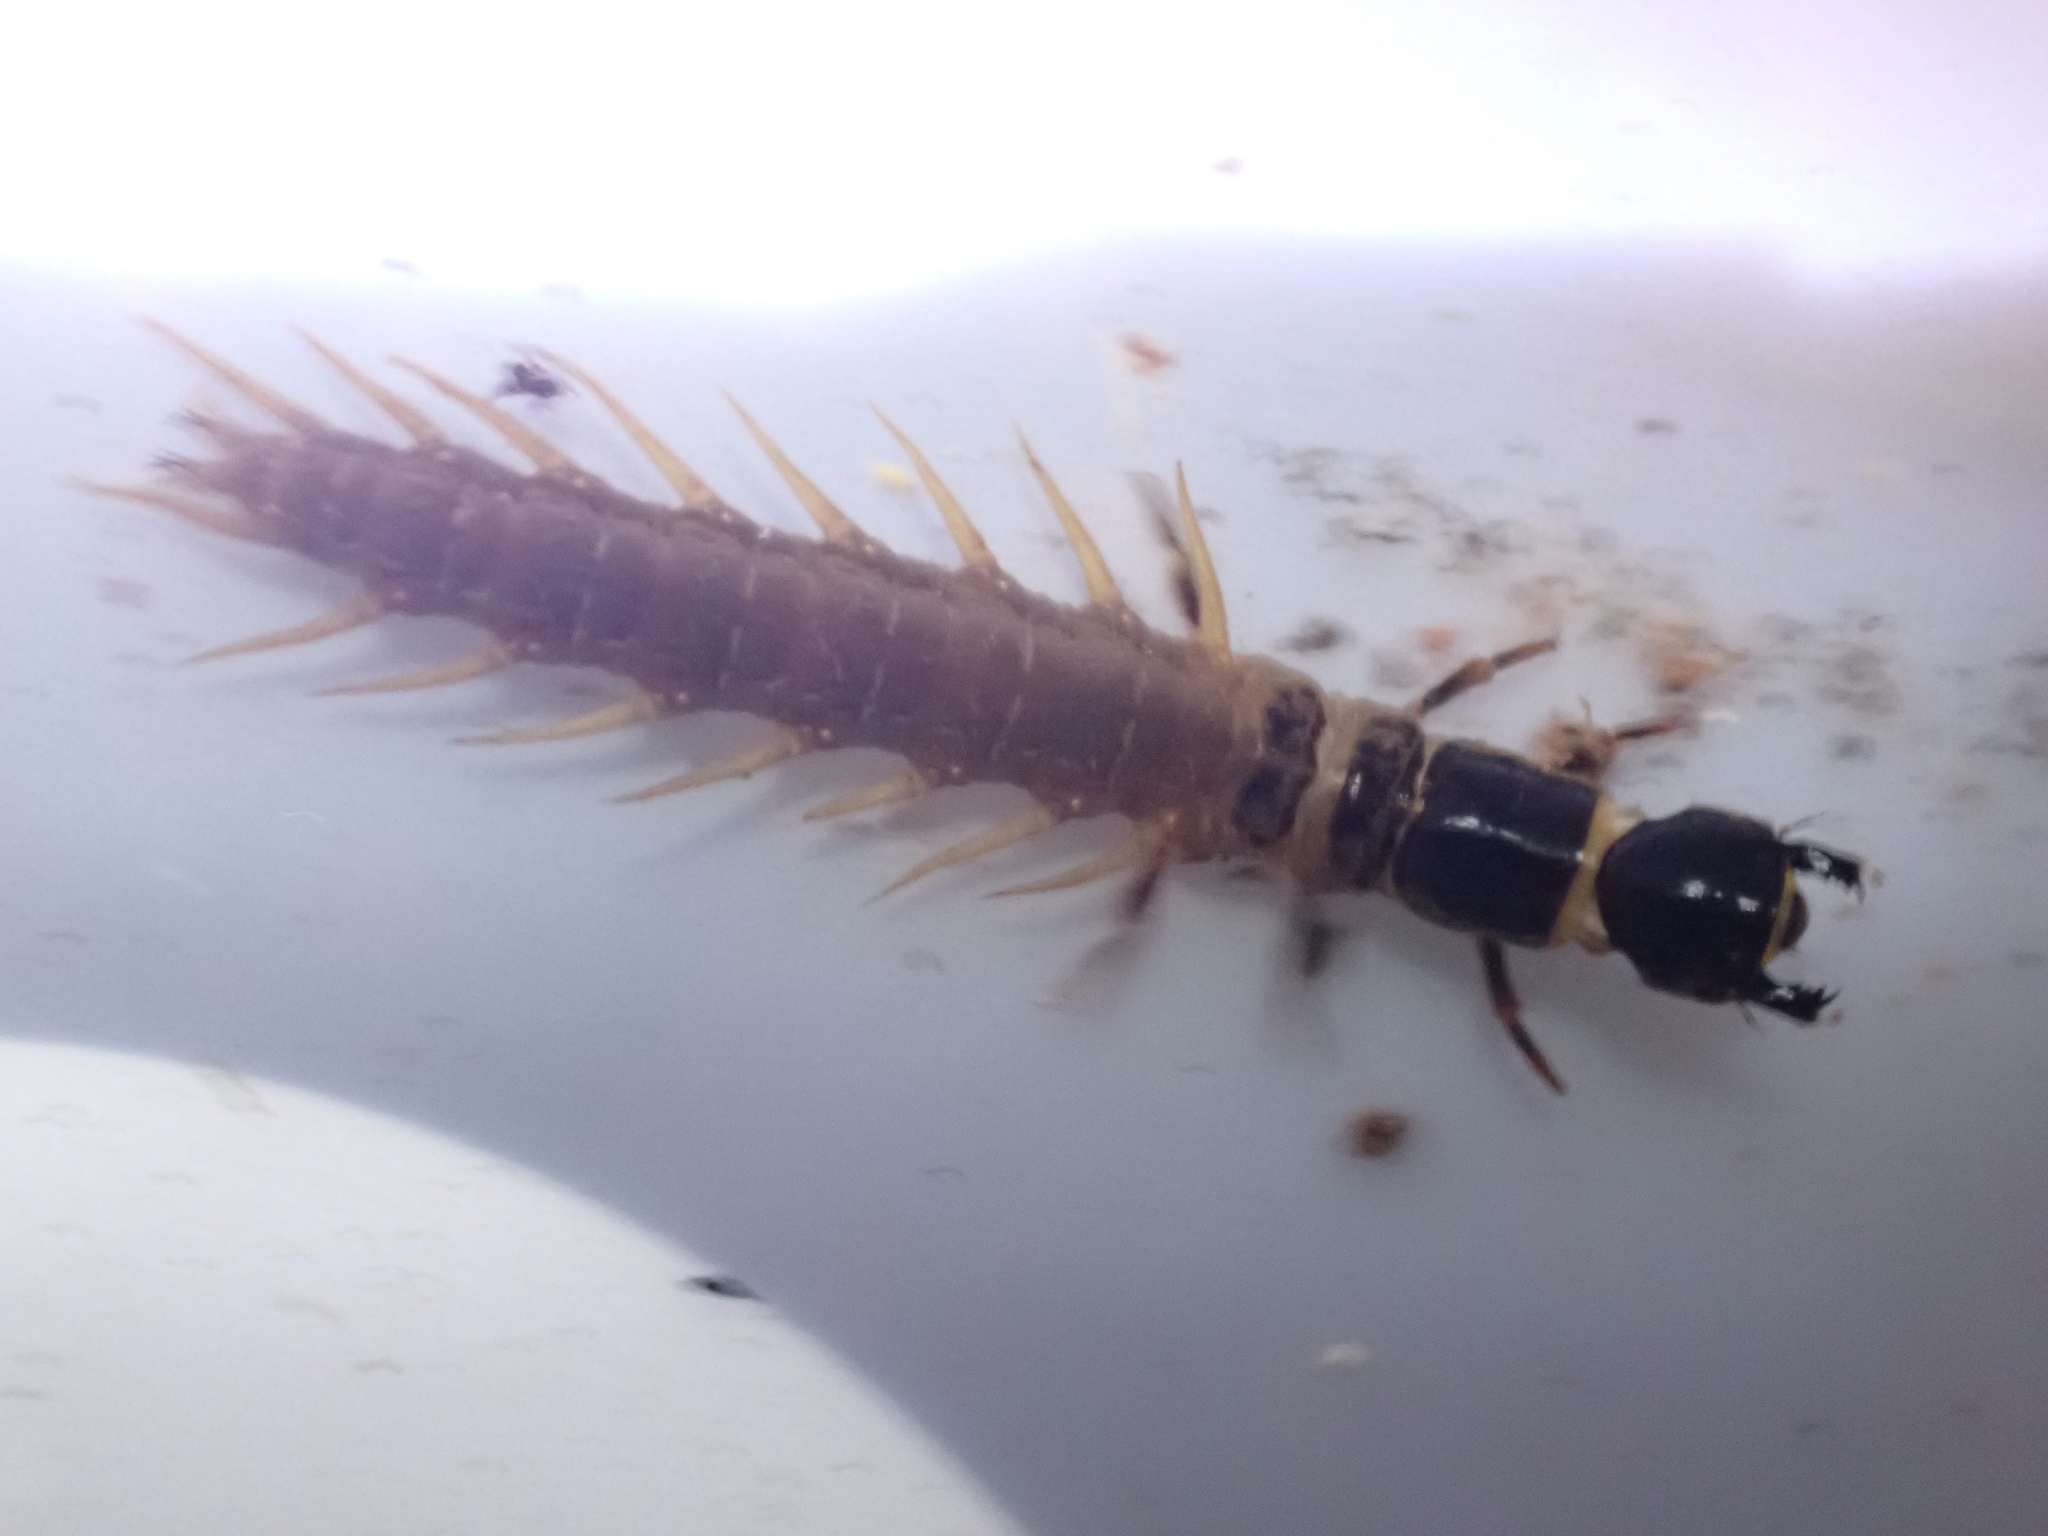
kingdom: Animalia
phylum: Arthropoda
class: Insecta
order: Megaloptera
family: Corydalidae
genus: Archichauliodes
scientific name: Archichauliodes diversus
